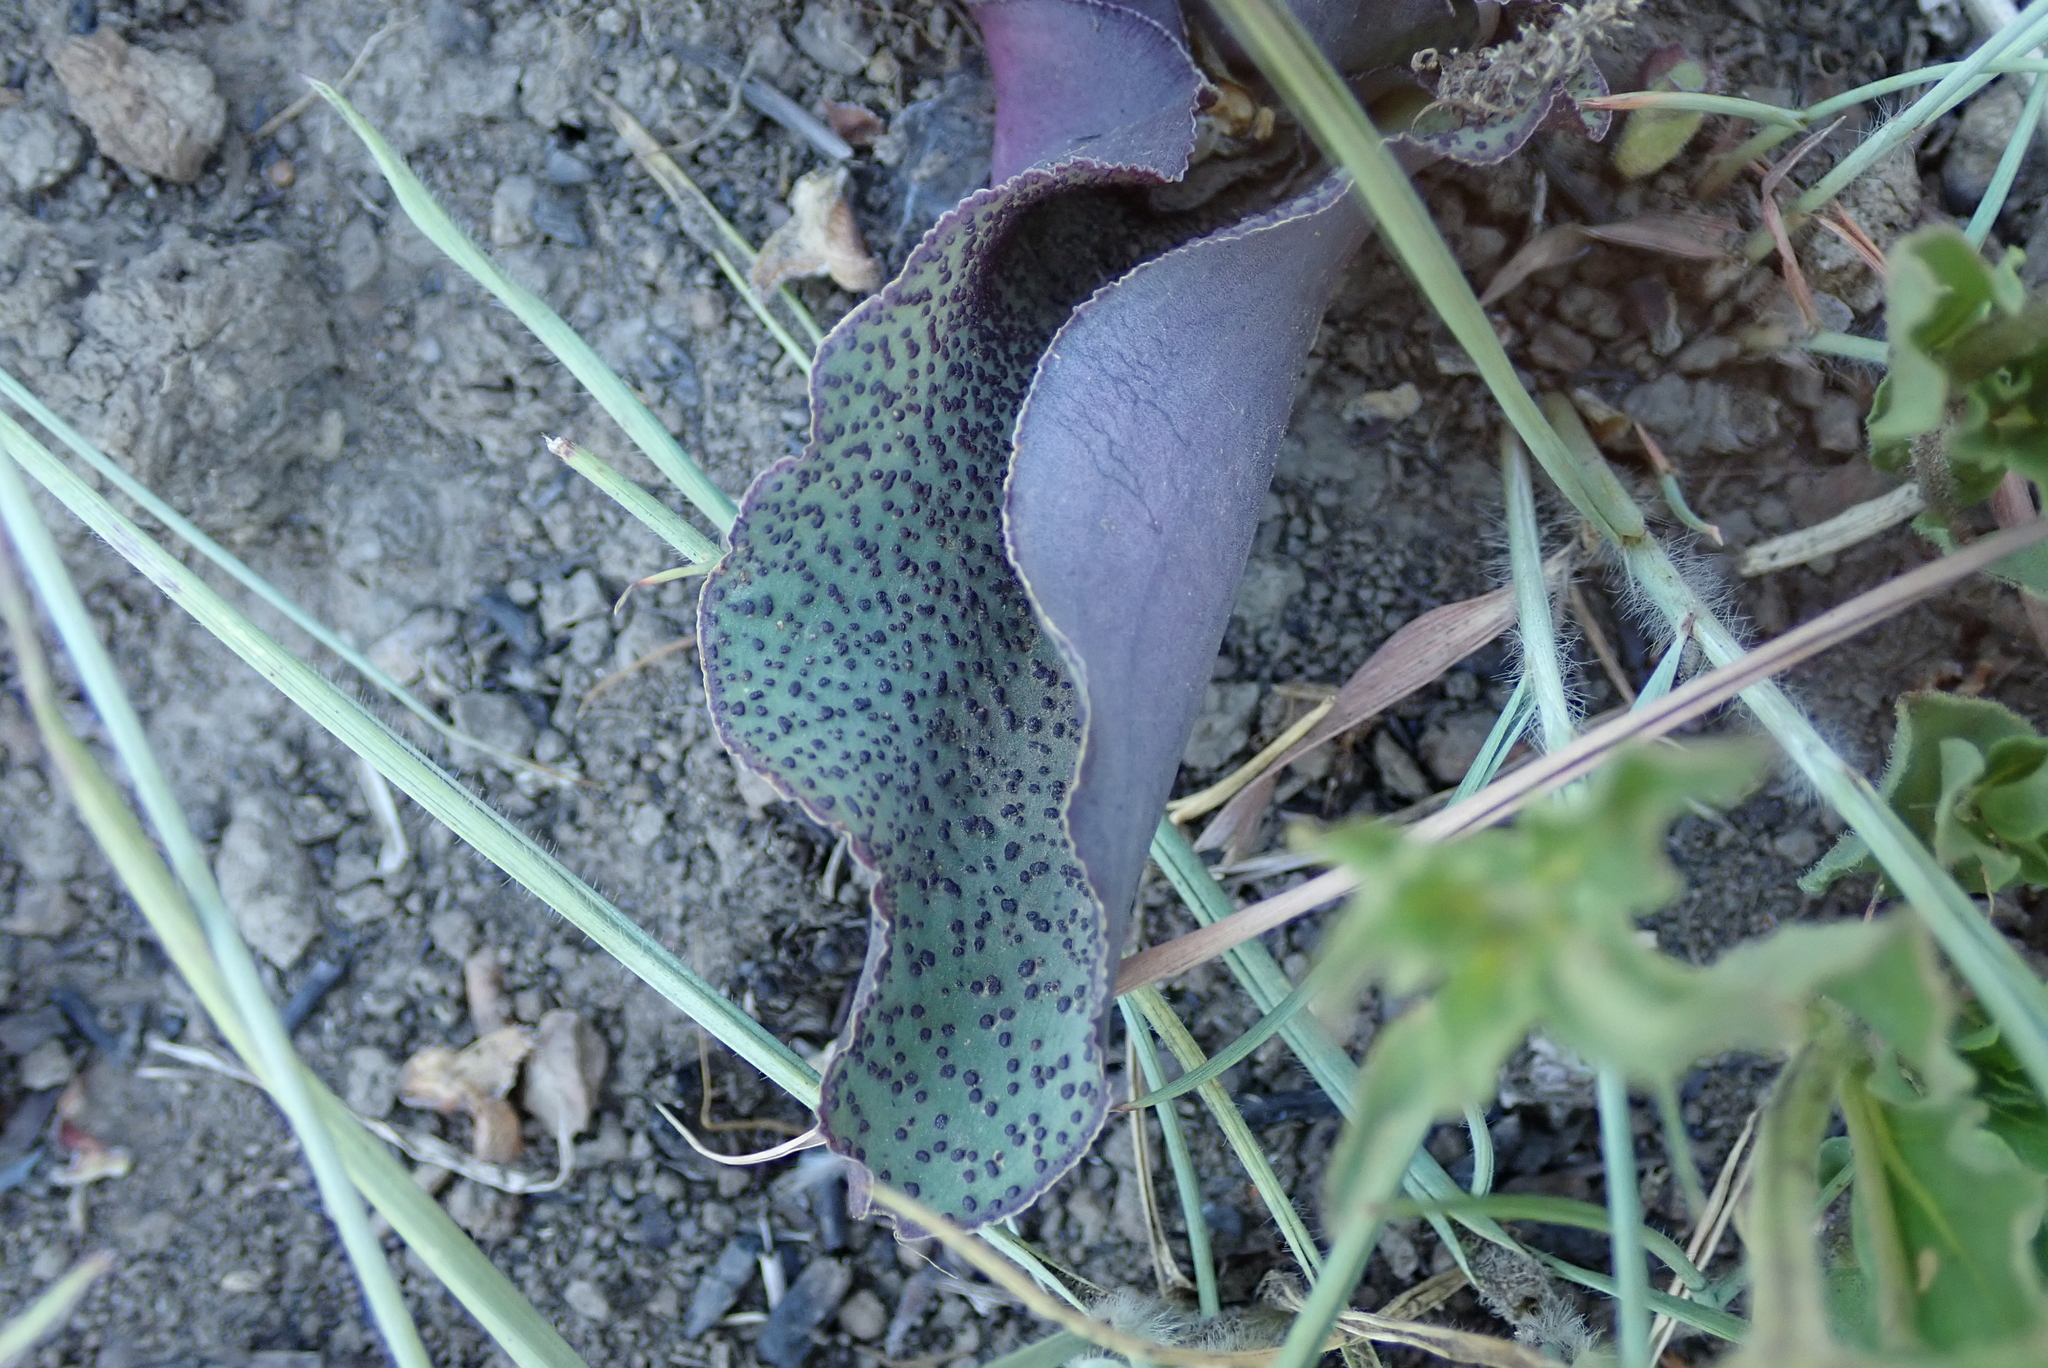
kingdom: Plantae
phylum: Tracheophyta
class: Liliopsida
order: Asparagales
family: Asparagaceae
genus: Ledebouria
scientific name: Ledebouria ovatifolia
